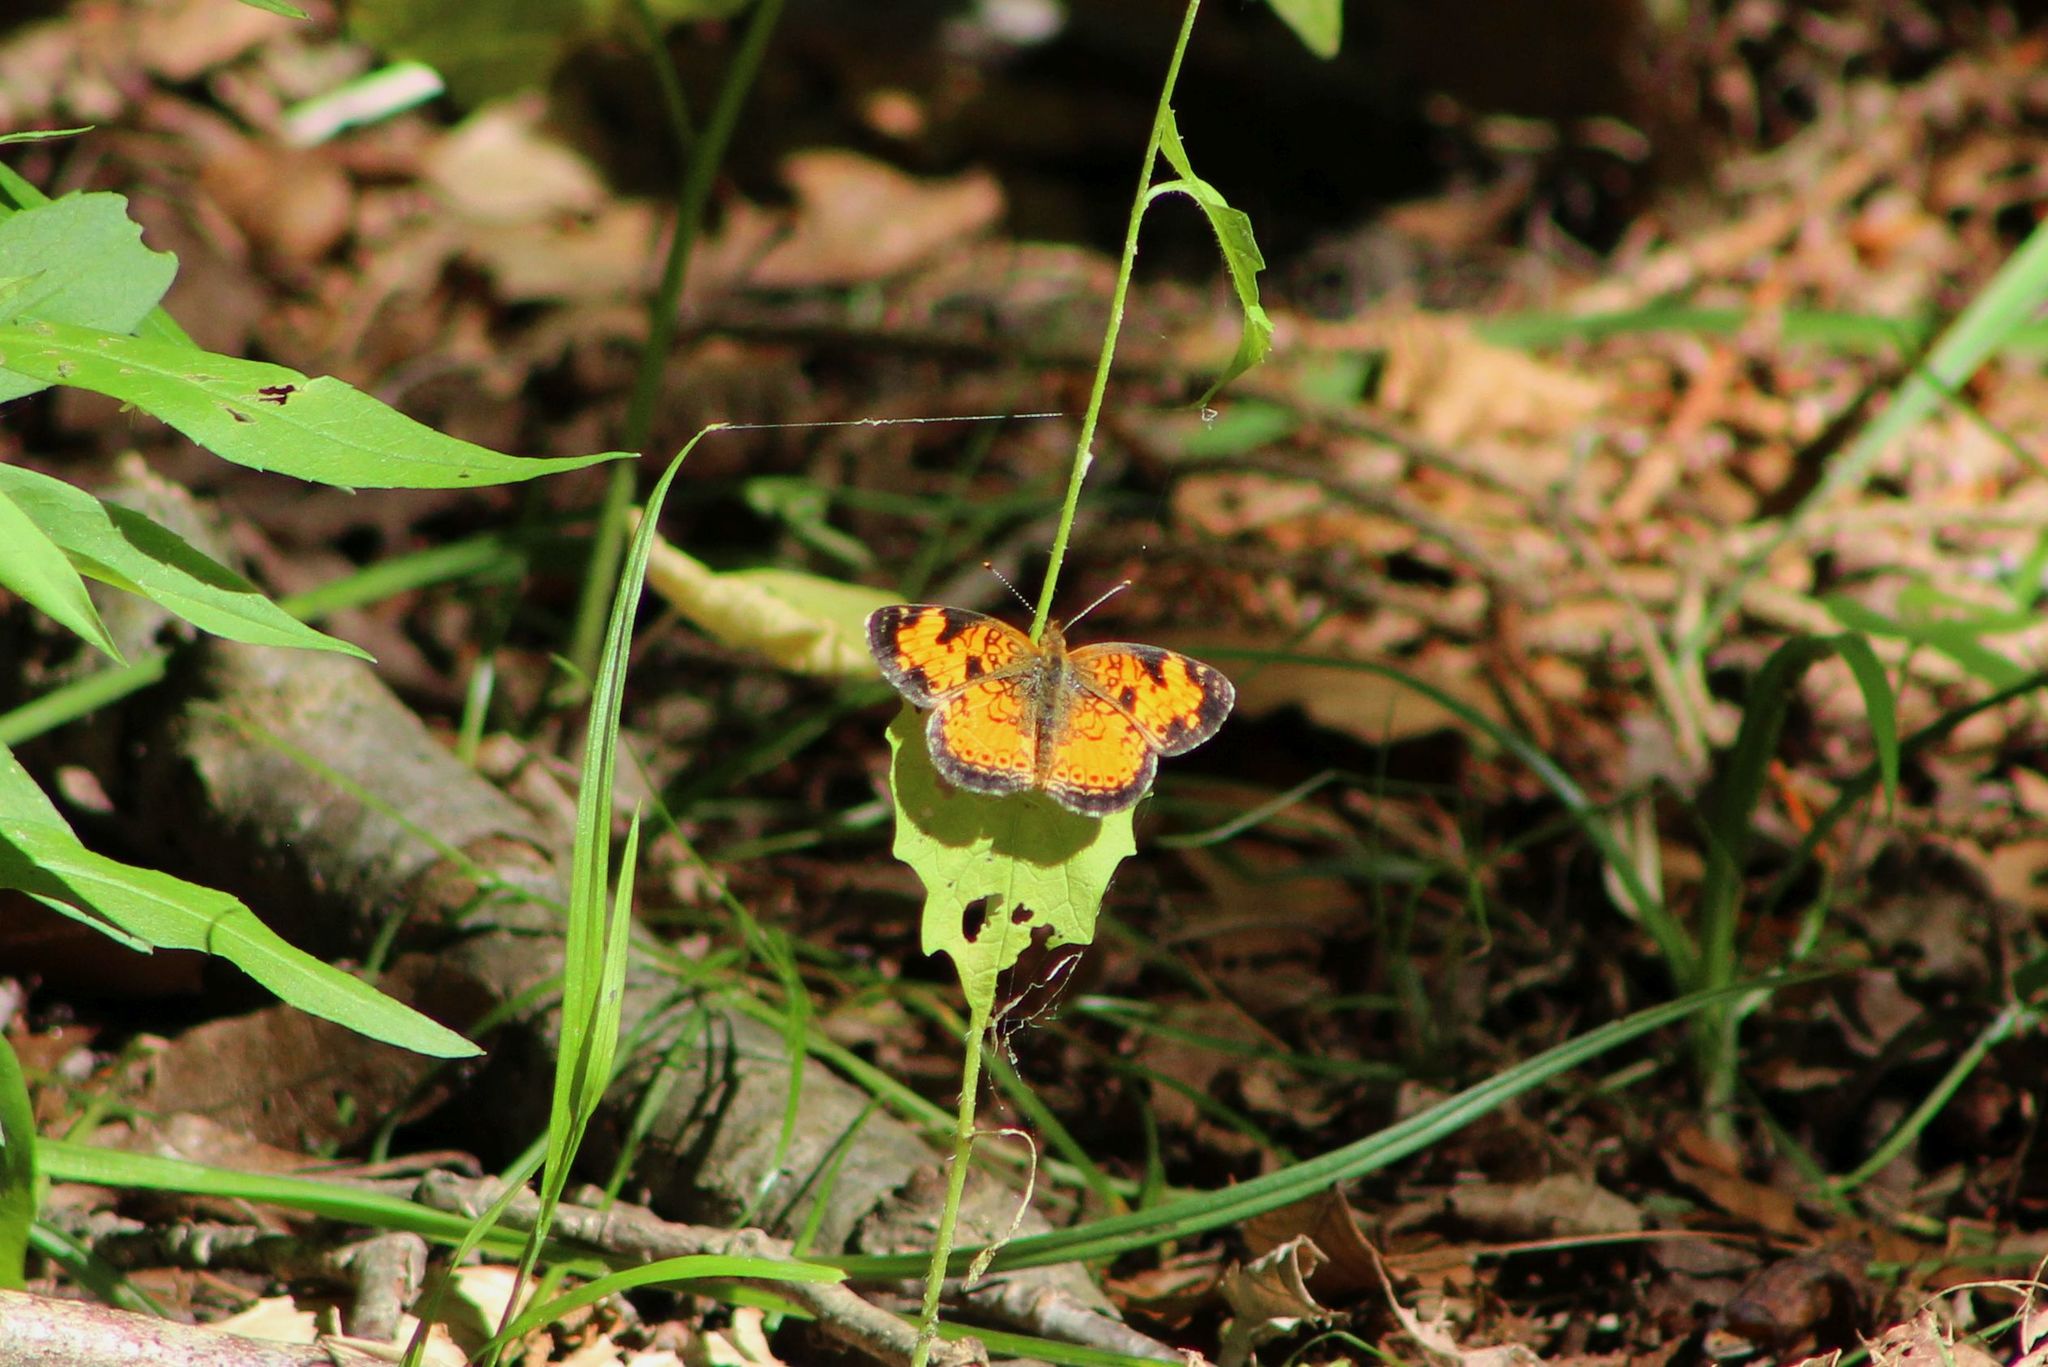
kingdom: Animalia
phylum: Arthropoda
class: Insecta
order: Lepidoptera
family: Nymphalidae
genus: Phyciodes
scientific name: Phyciodes tharos
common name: Pearl crescent
